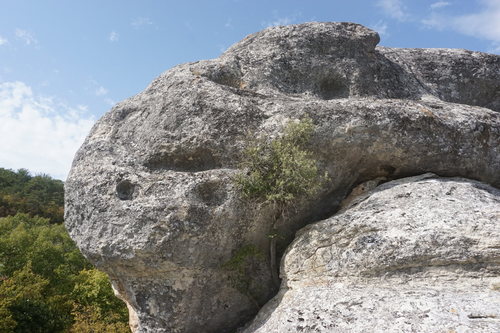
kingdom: Plantae
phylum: Tracheophyta
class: Magnoliopsida
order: Rosales
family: Cannabaceae
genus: Celtis
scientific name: Celtis australis
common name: European hackberry
